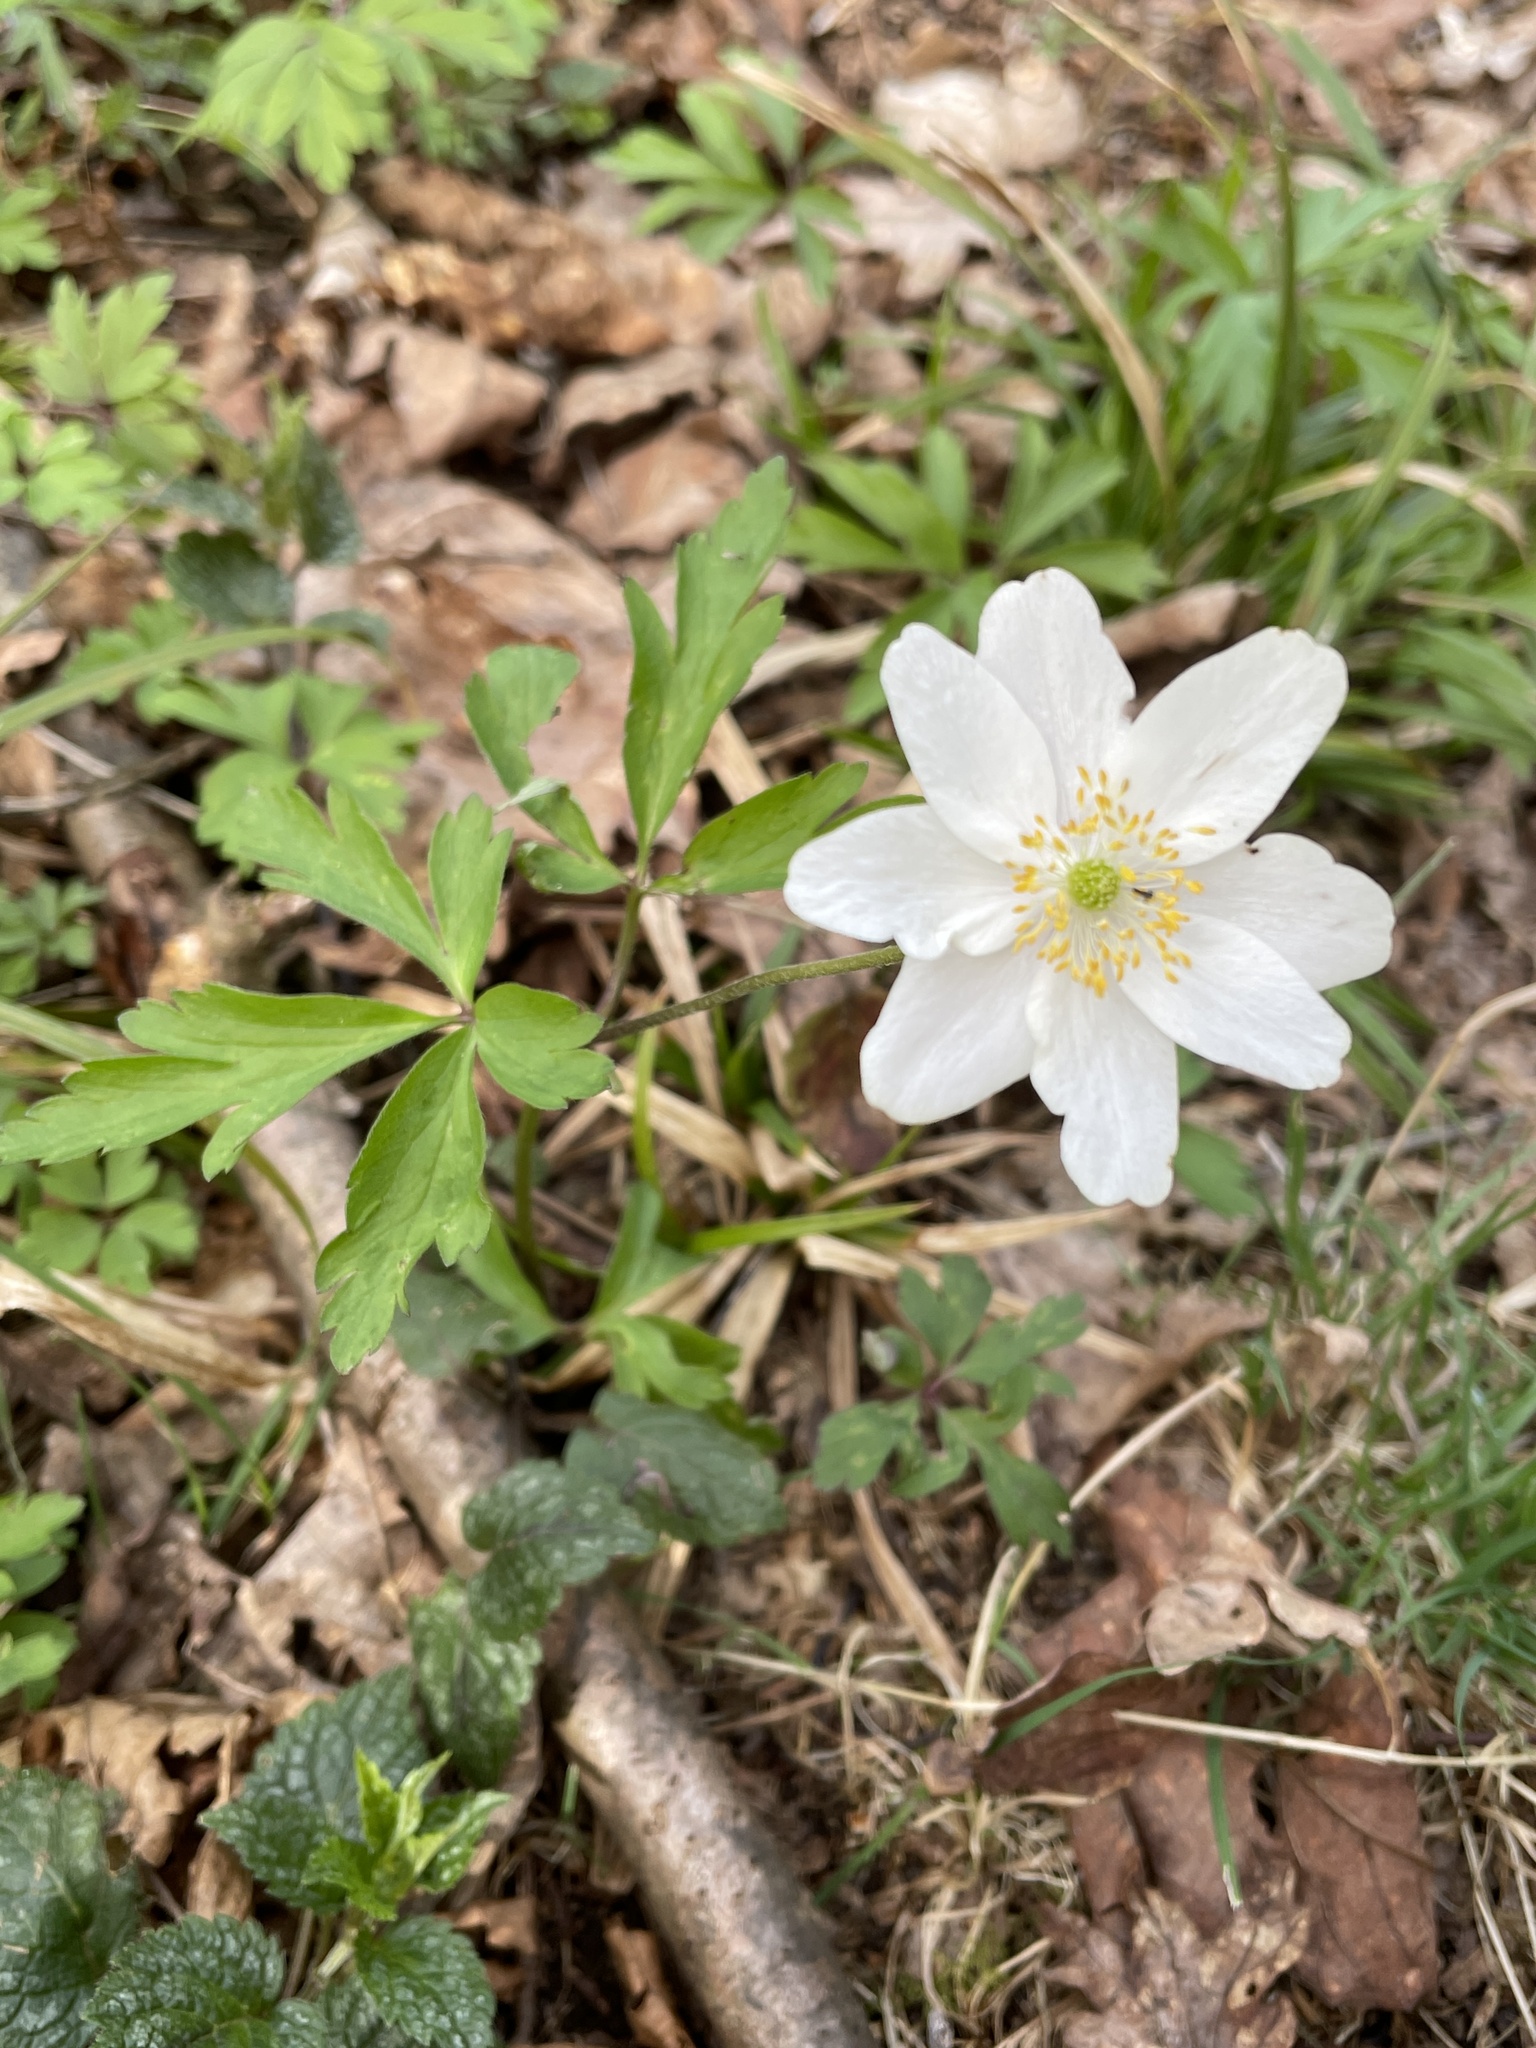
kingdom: Plantae
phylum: Tracheophyta
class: Magnoliopsida
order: Ranunculales
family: Ranunculaceae
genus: Anemone
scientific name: Anemone nemorosa
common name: Wood anemone
